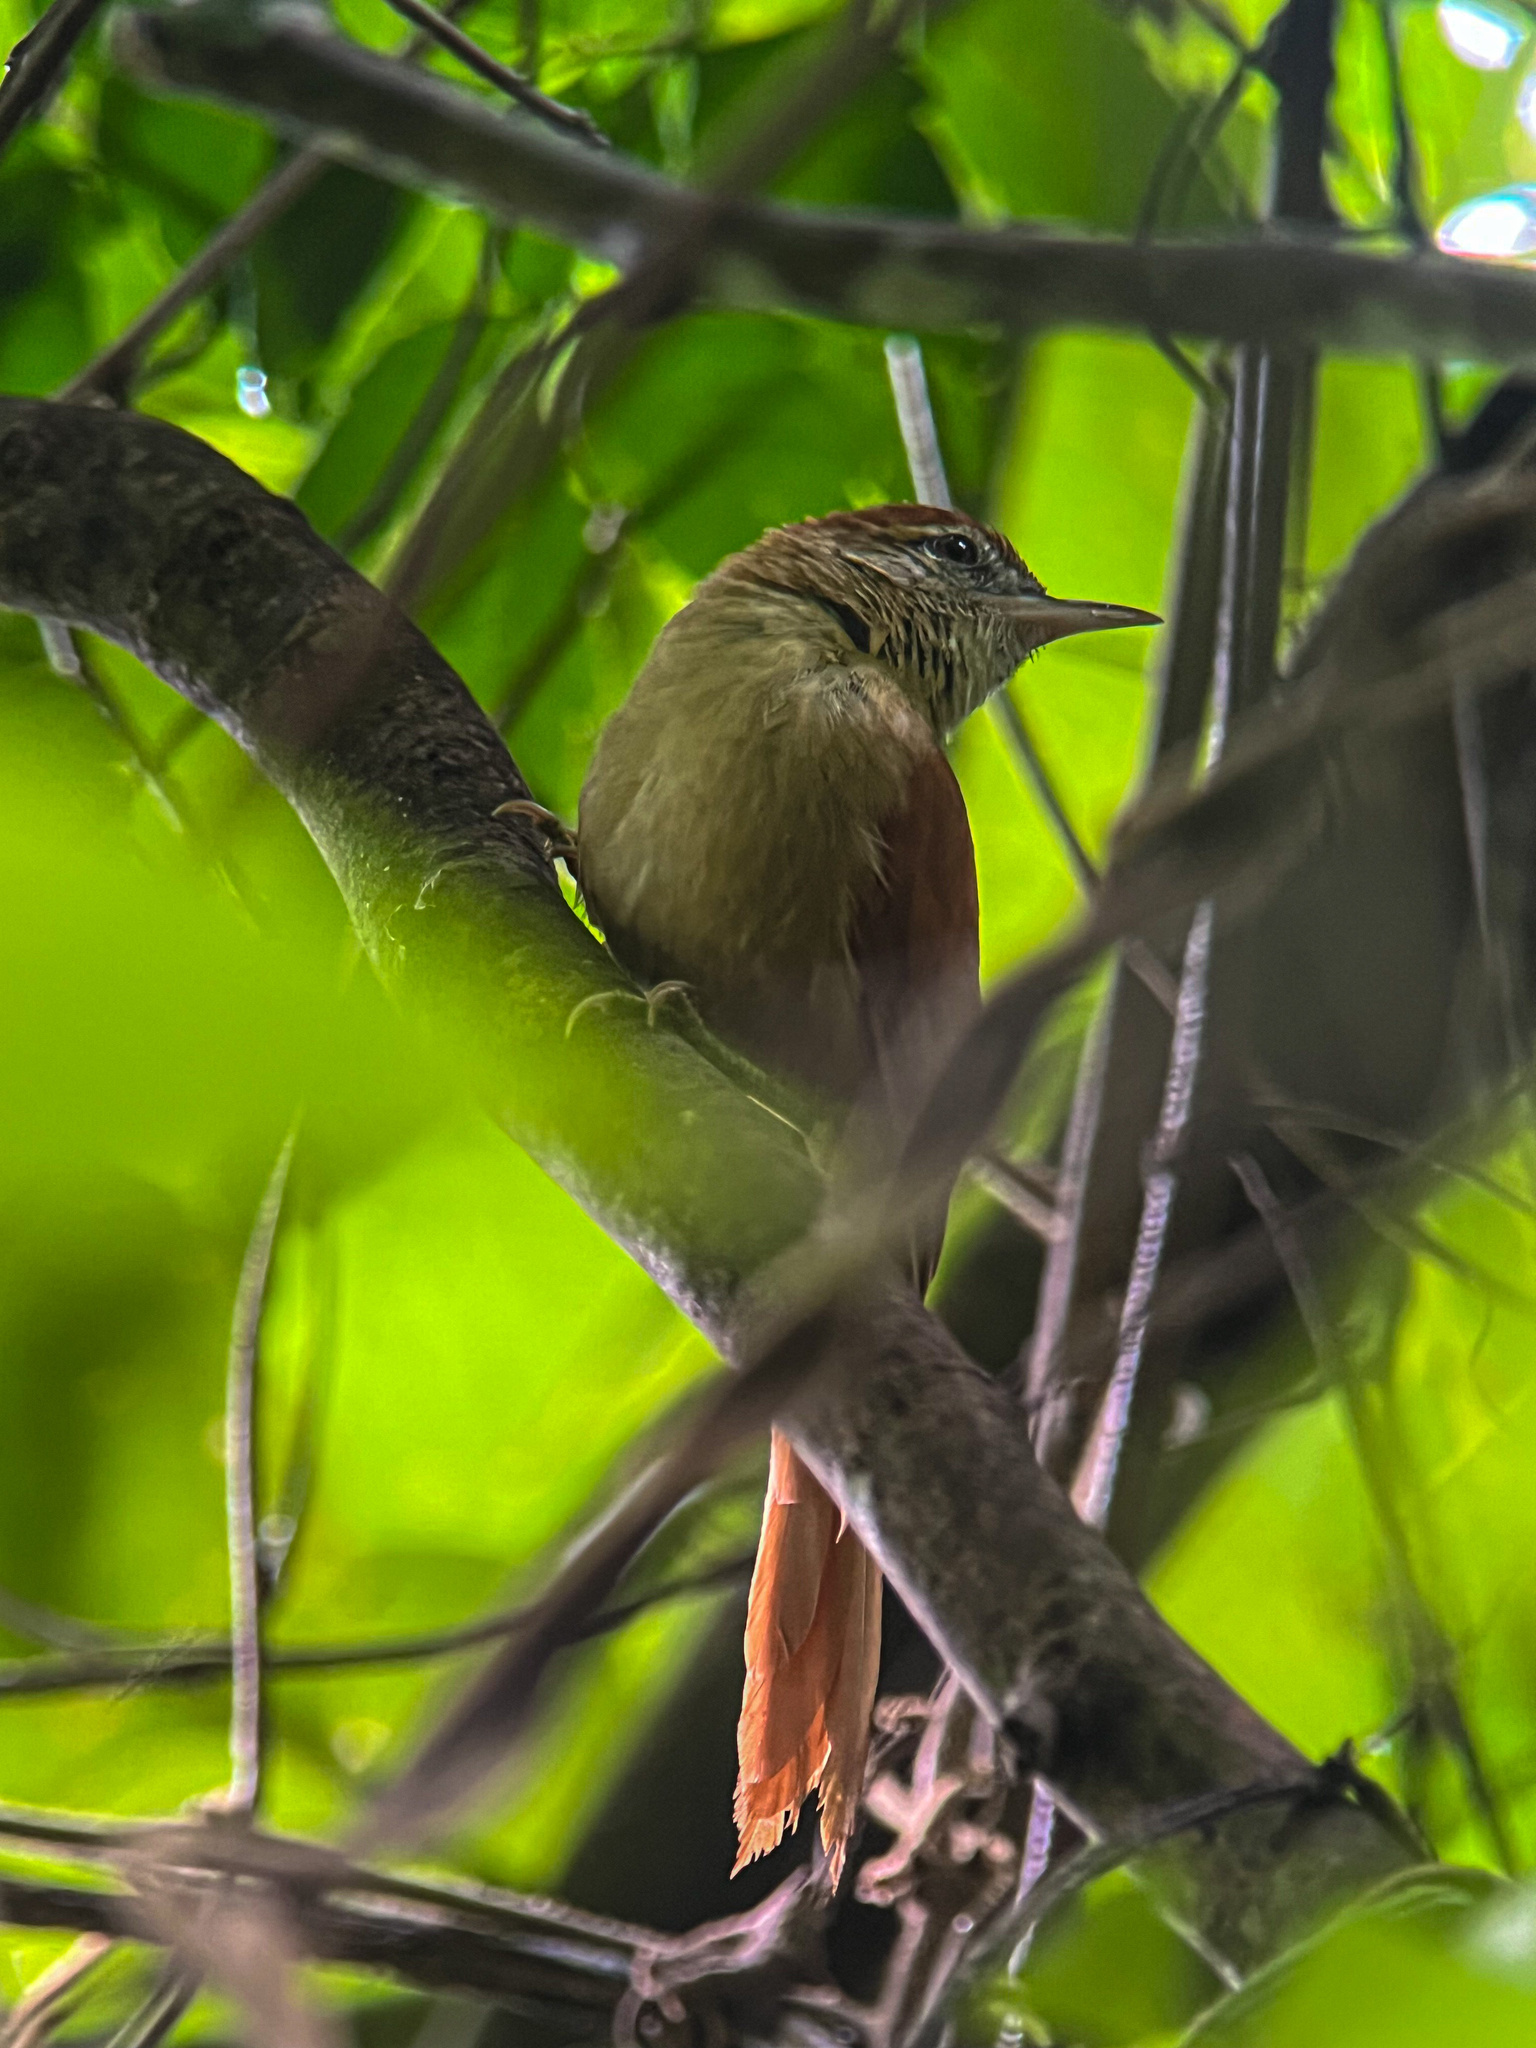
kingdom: Animalia
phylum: Chordata
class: Aves
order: Passeriformes
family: Furnariidae
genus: Cranioleuca
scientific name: Cranioleuca vulpina
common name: Rusty-backed spinetail
